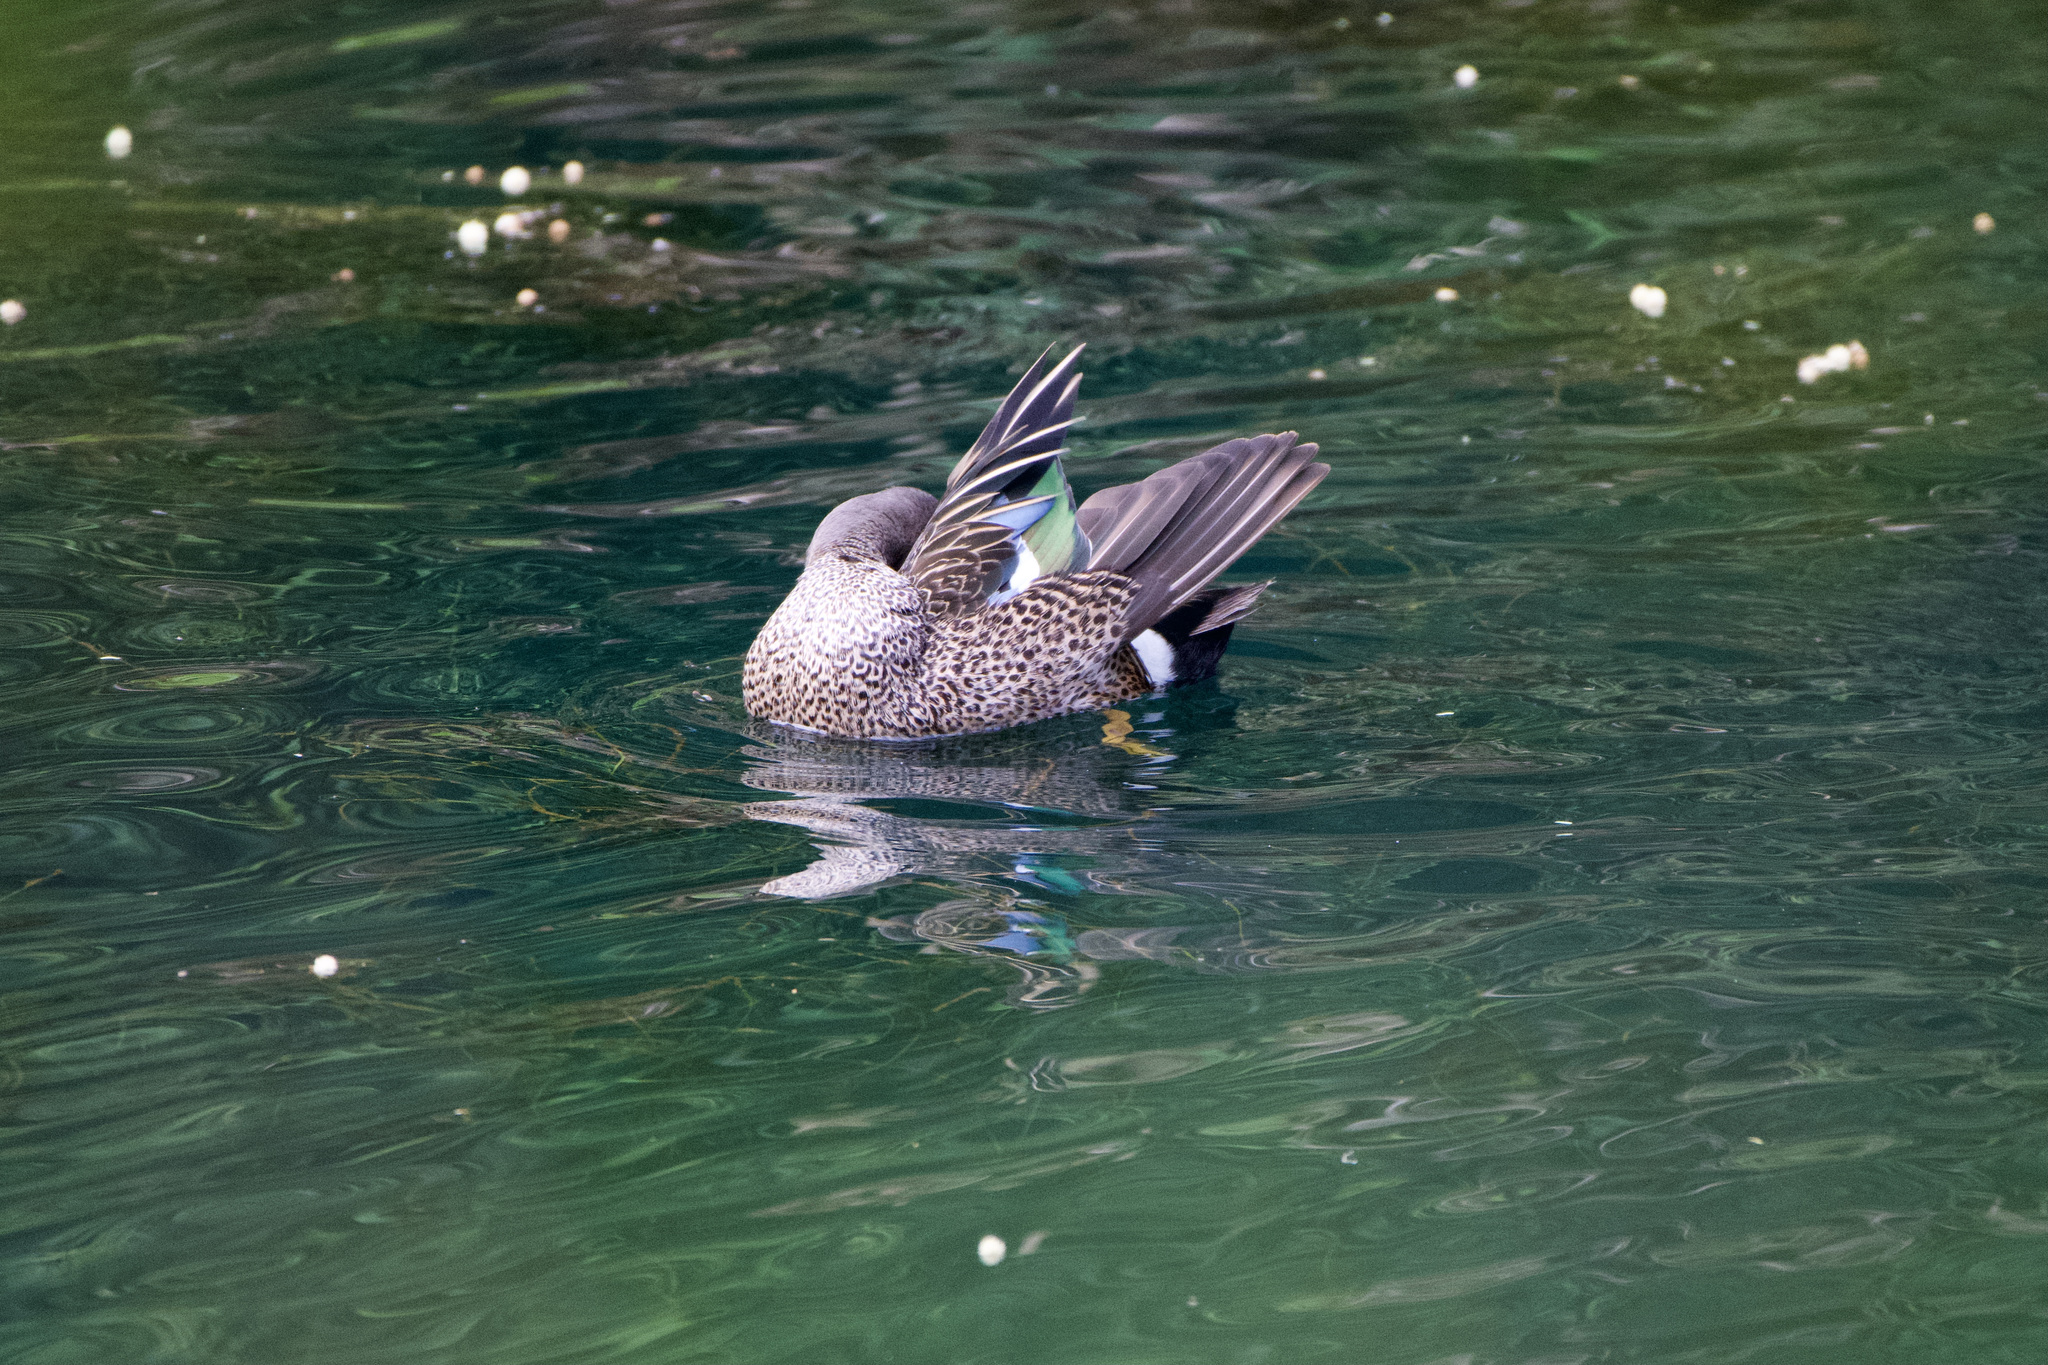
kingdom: Animalia
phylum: Chordata
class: Aves
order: Anseriformes
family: Anatidae
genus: Spatula
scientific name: Spatula discors
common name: Blue-winged teal
